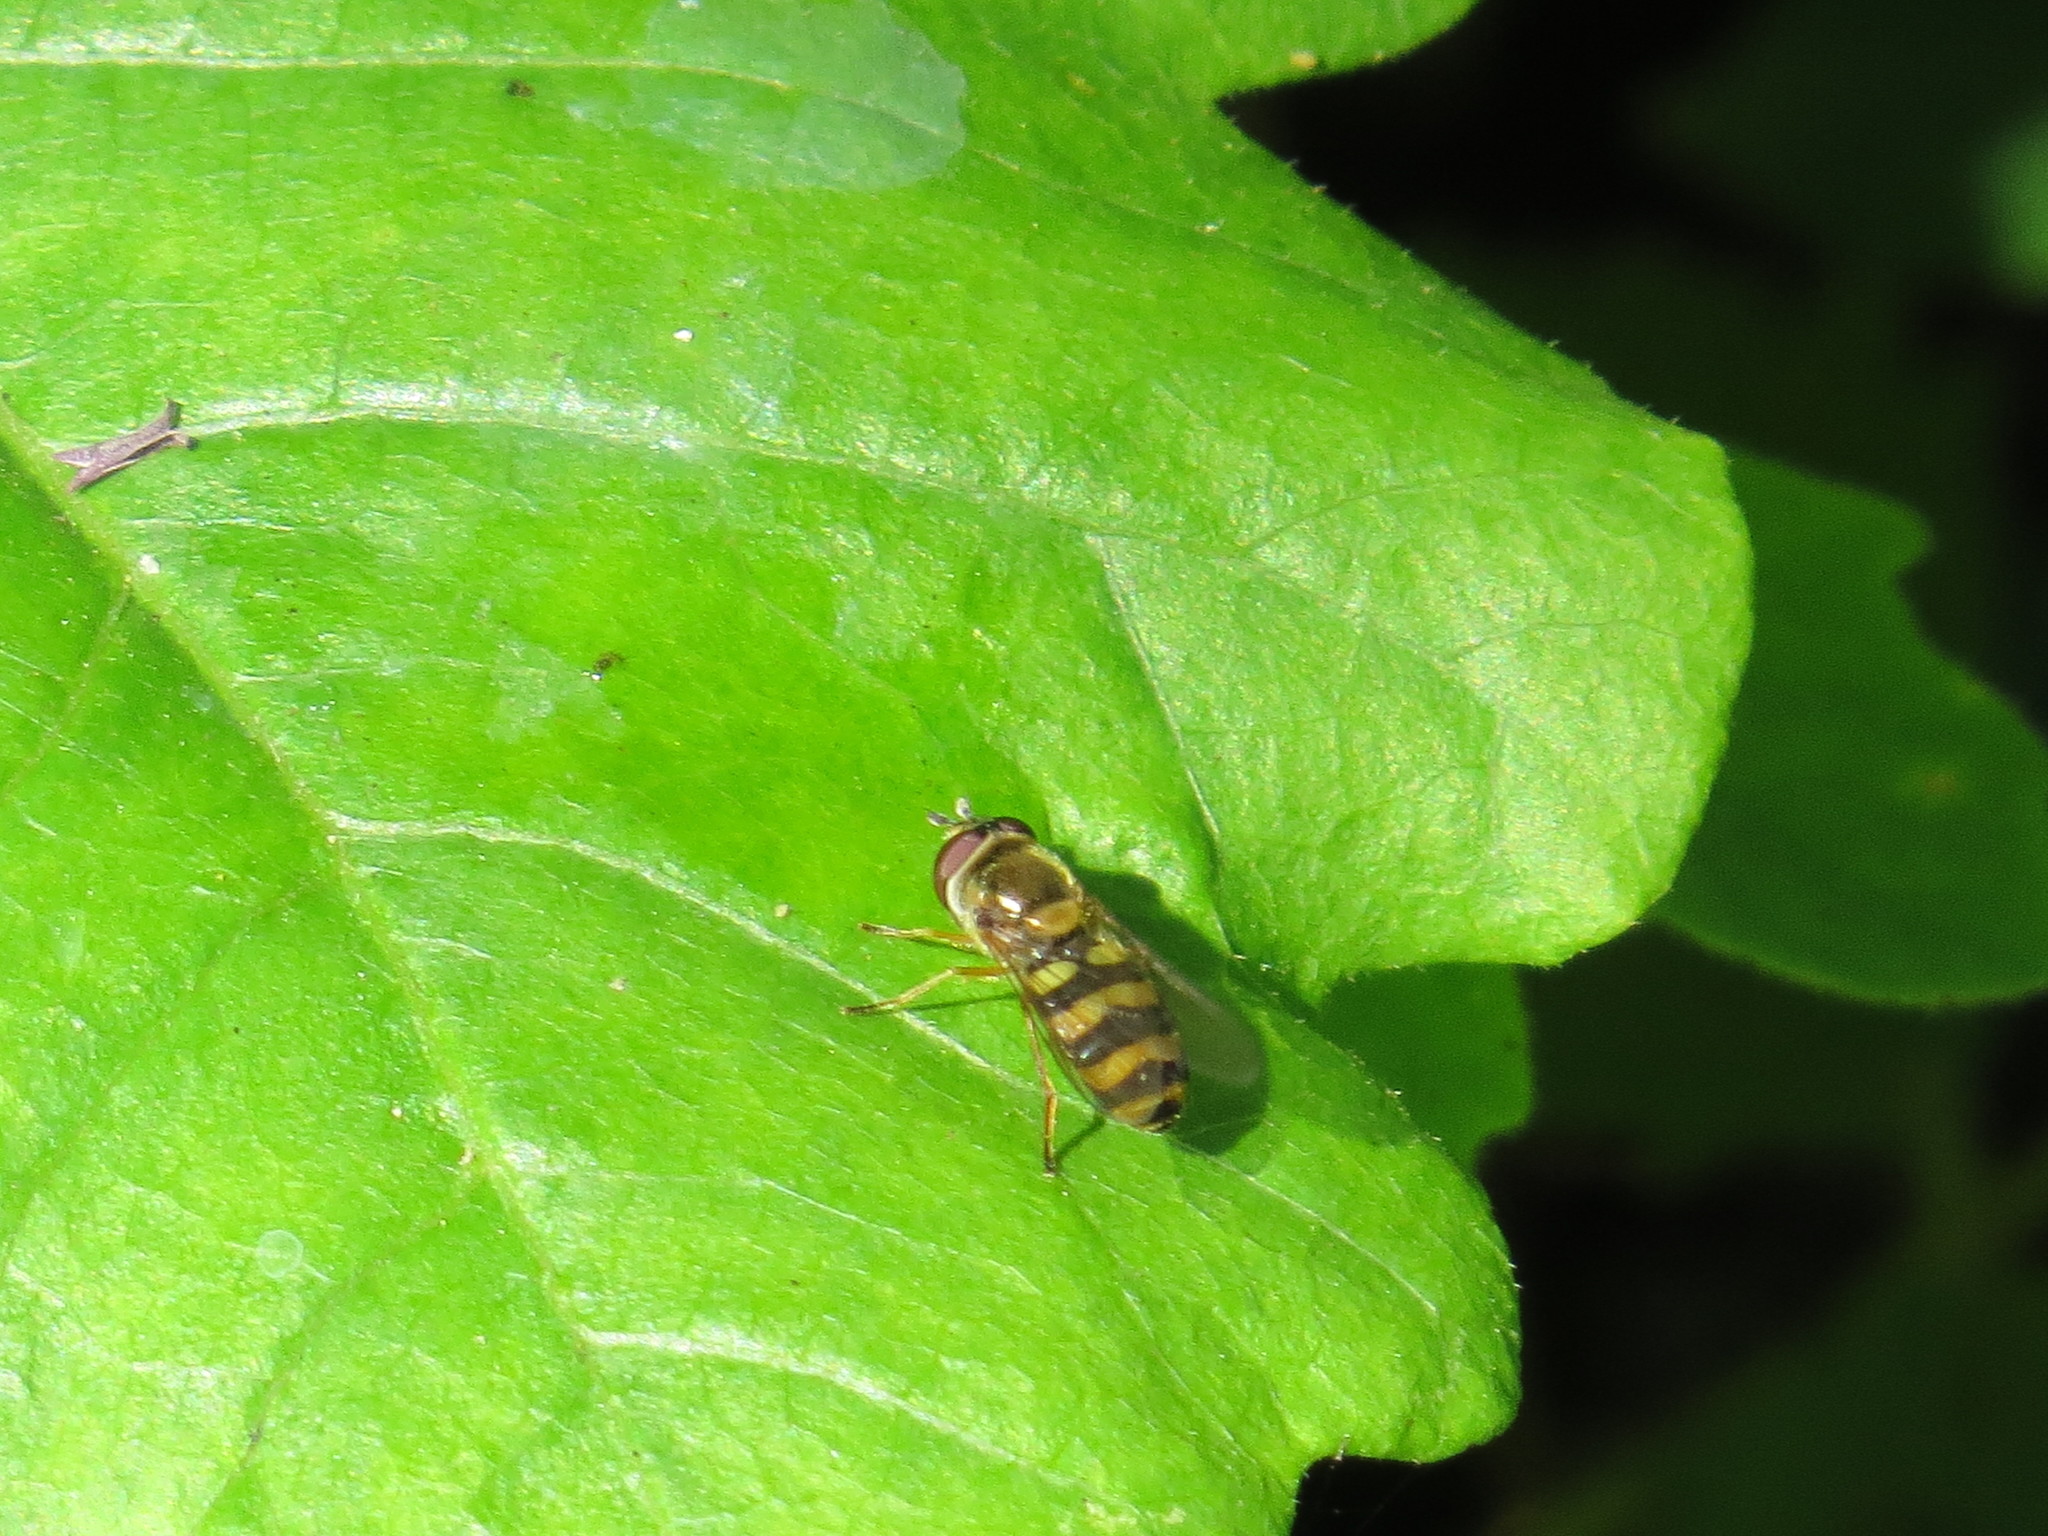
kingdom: Animalia
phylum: Arthropoda
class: Insecta
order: Diptera
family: Syrphidae
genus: Eupeodes
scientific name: Eupeodes fumipennis
